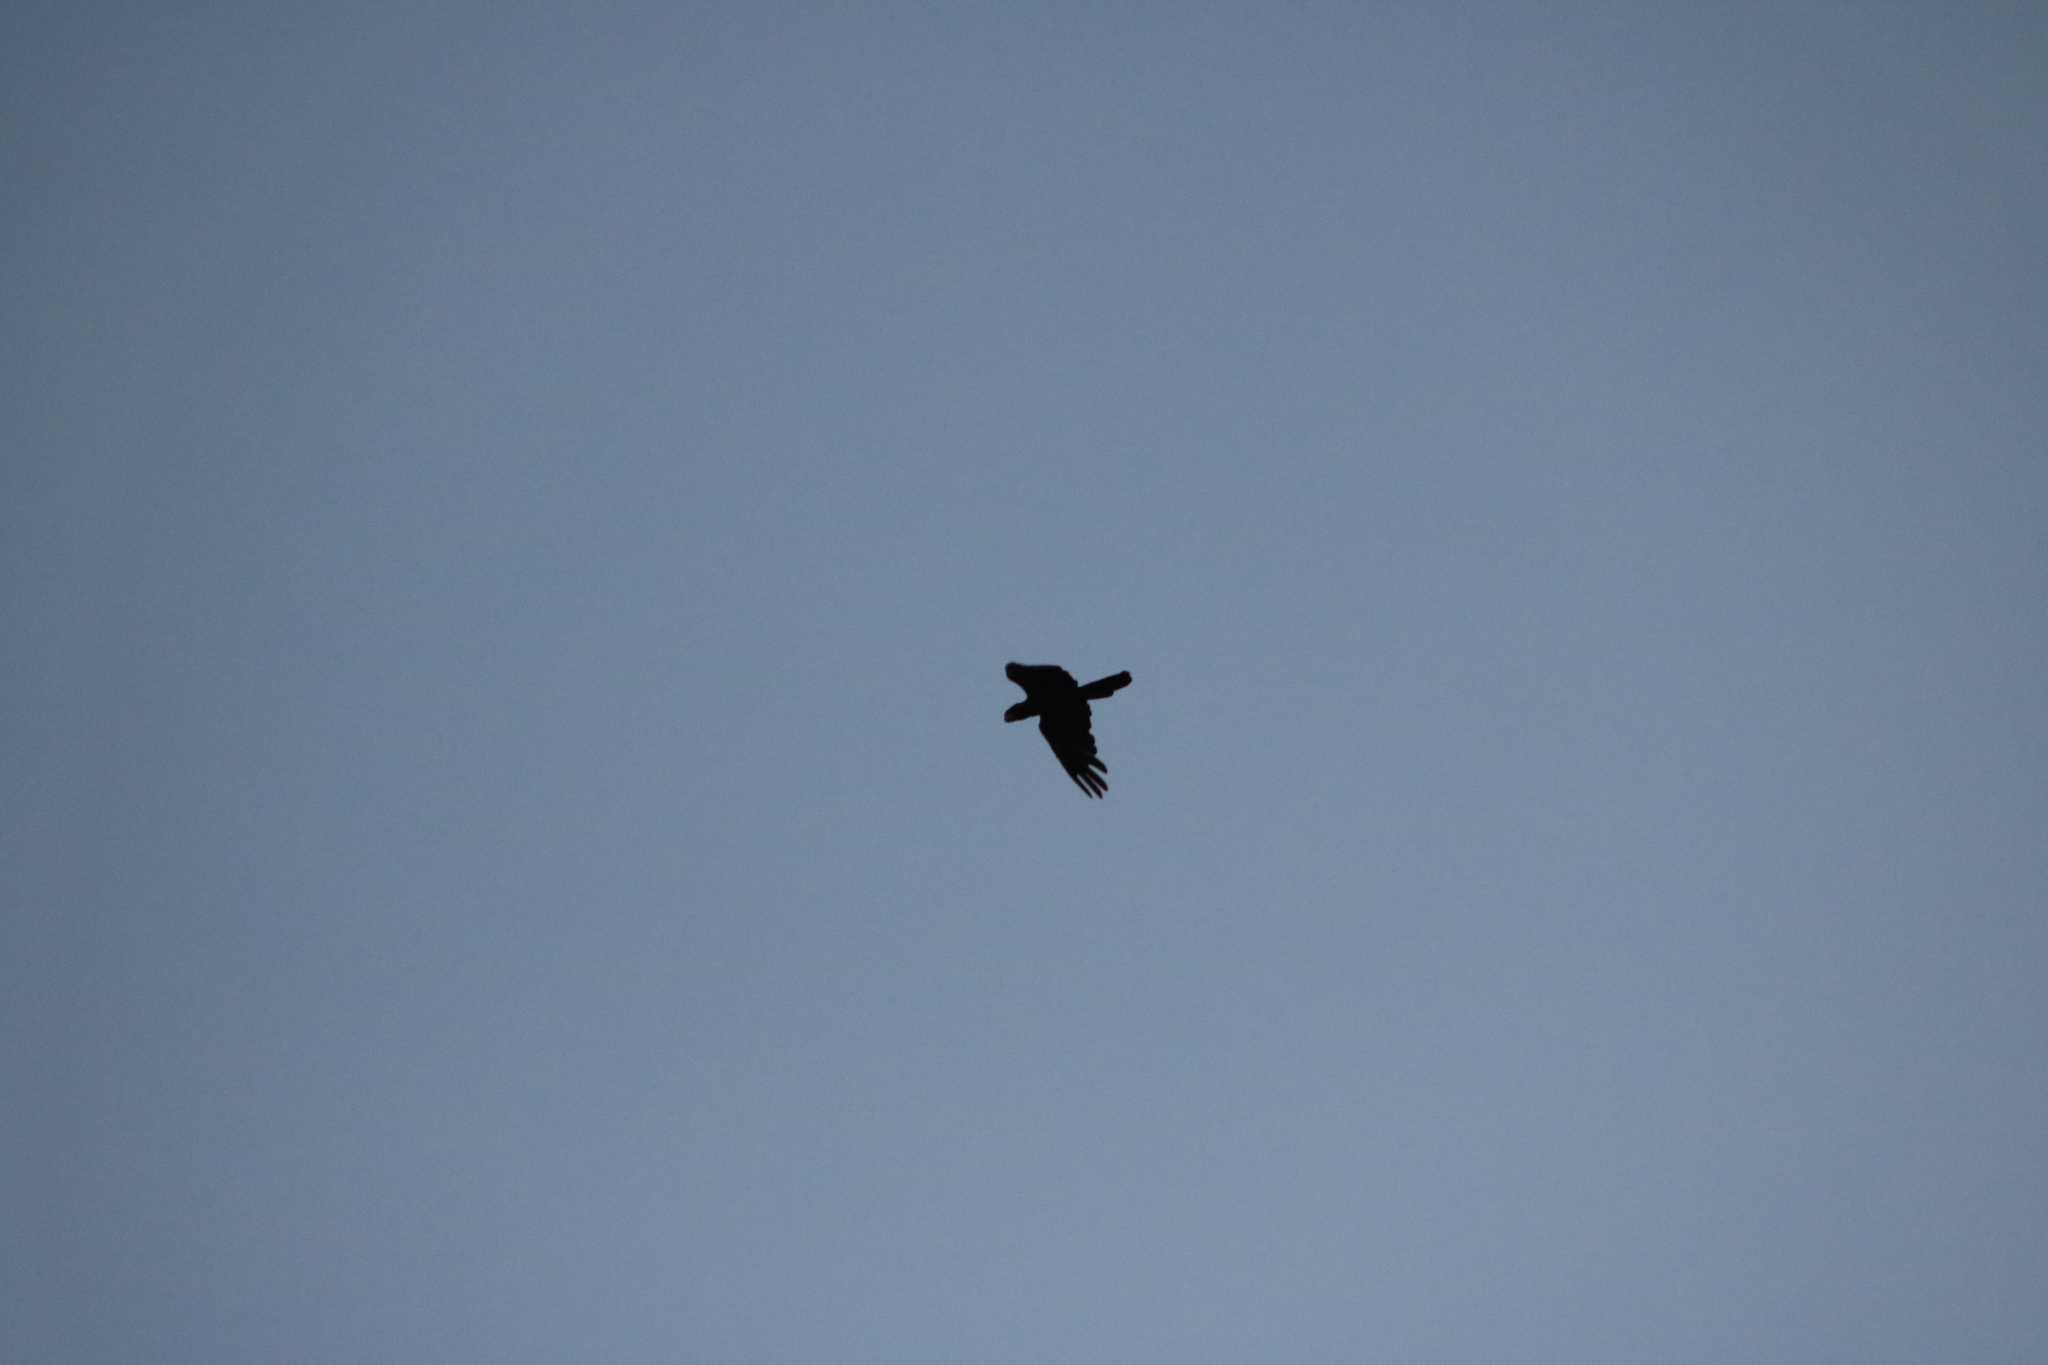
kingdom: Animalia
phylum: Chordata
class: Aves
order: Psittaciformes
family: Psittacidae
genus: Calyptorhynchus
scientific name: Calyptorhynchus banksii
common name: Red-tailed black cockatoo
